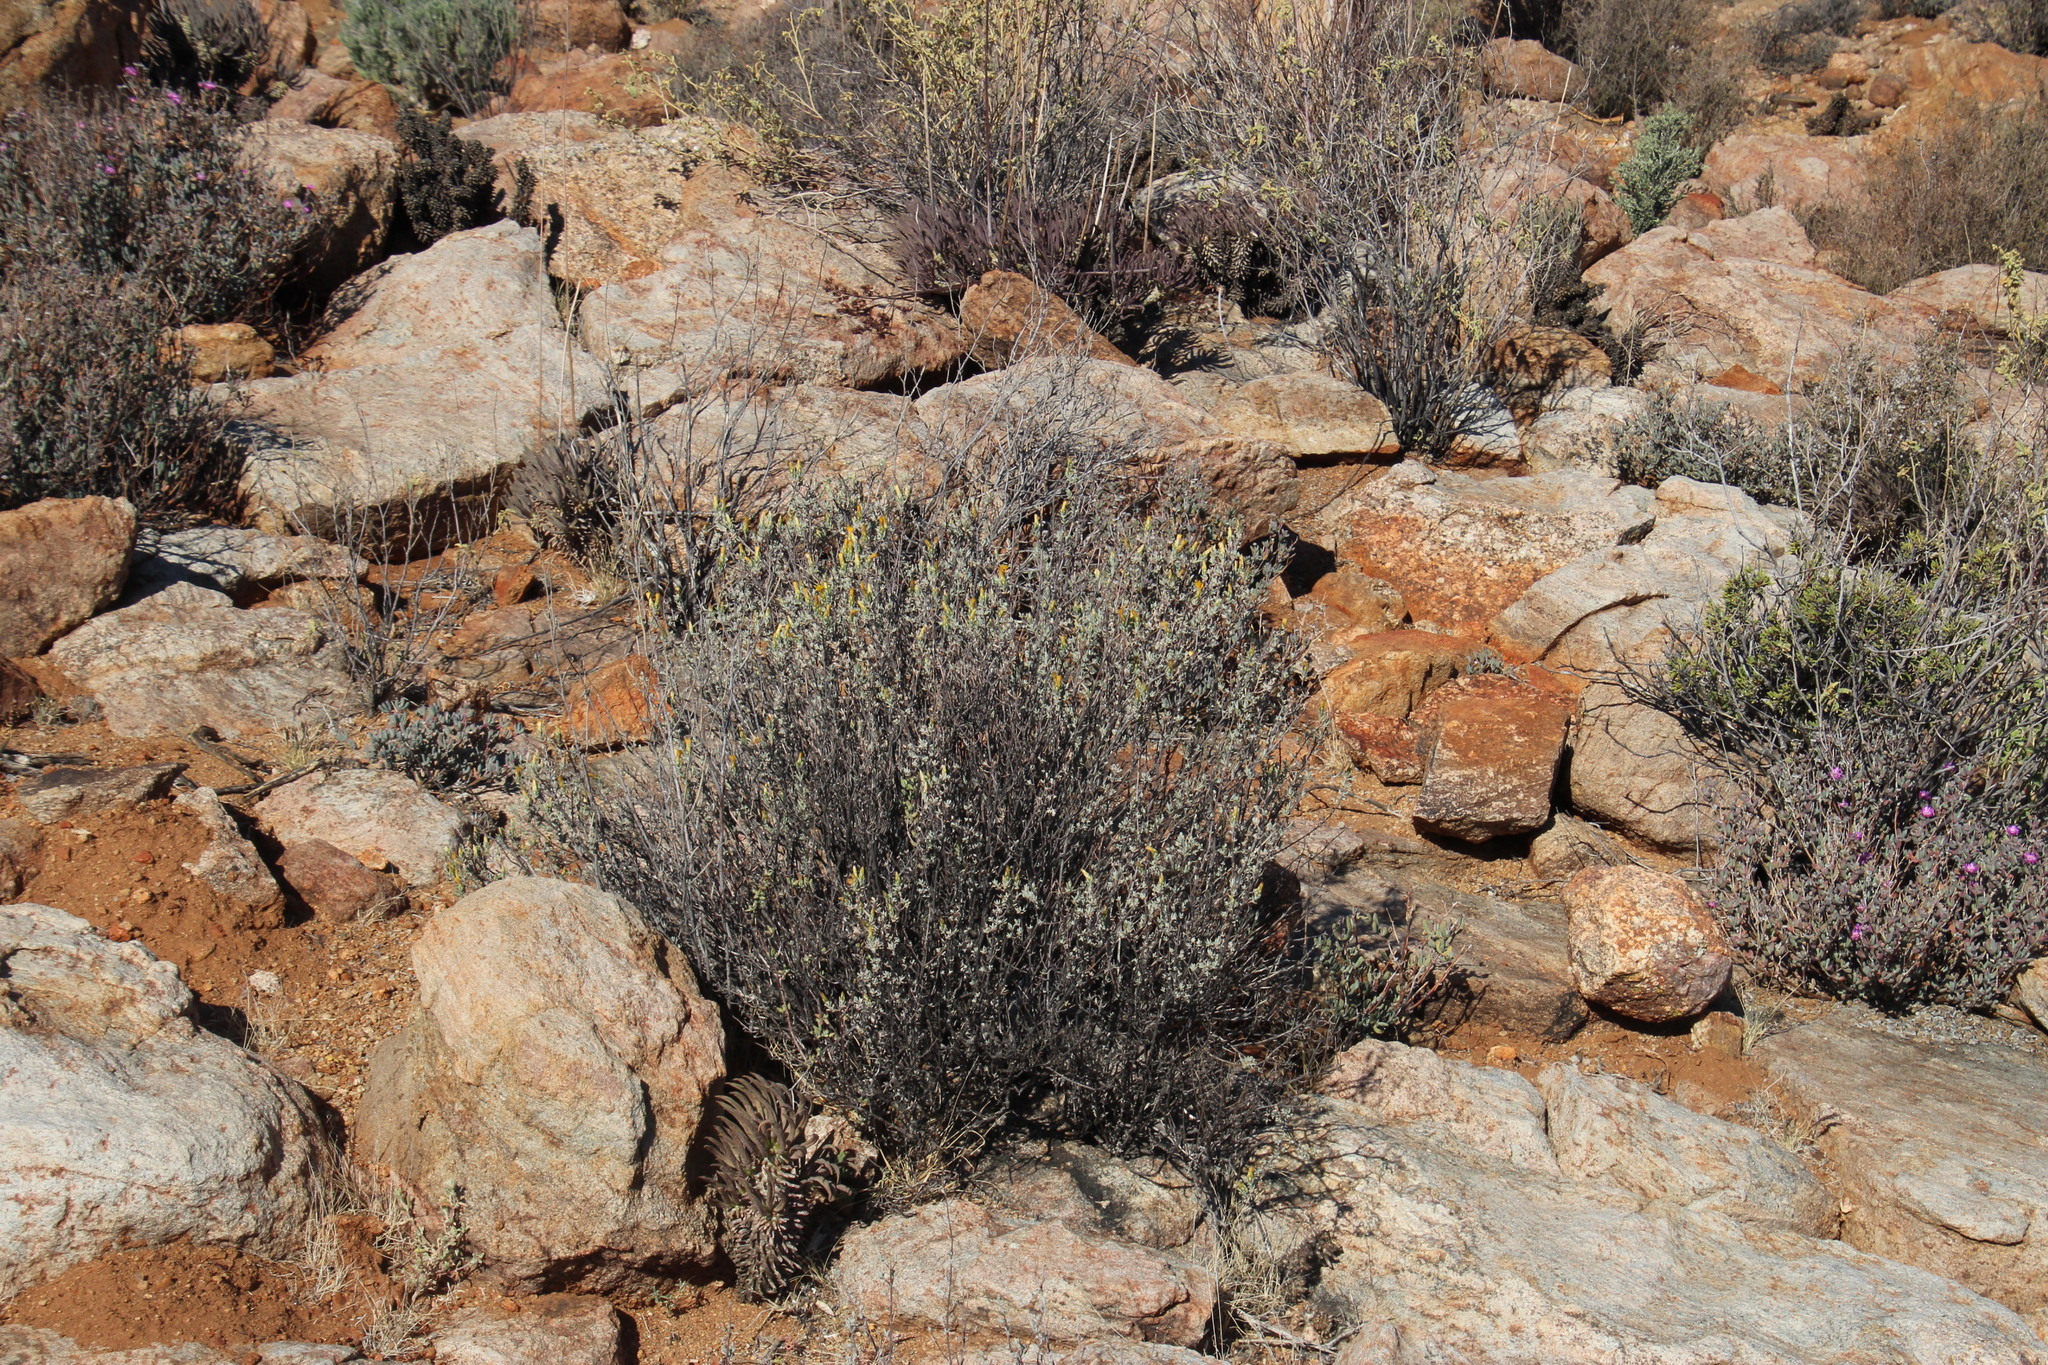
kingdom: Plantae
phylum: Tracheophyta
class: Magnoliopsida
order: Asterales
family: Asteraceae
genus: Pteronia
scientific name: Pteronia glauca
